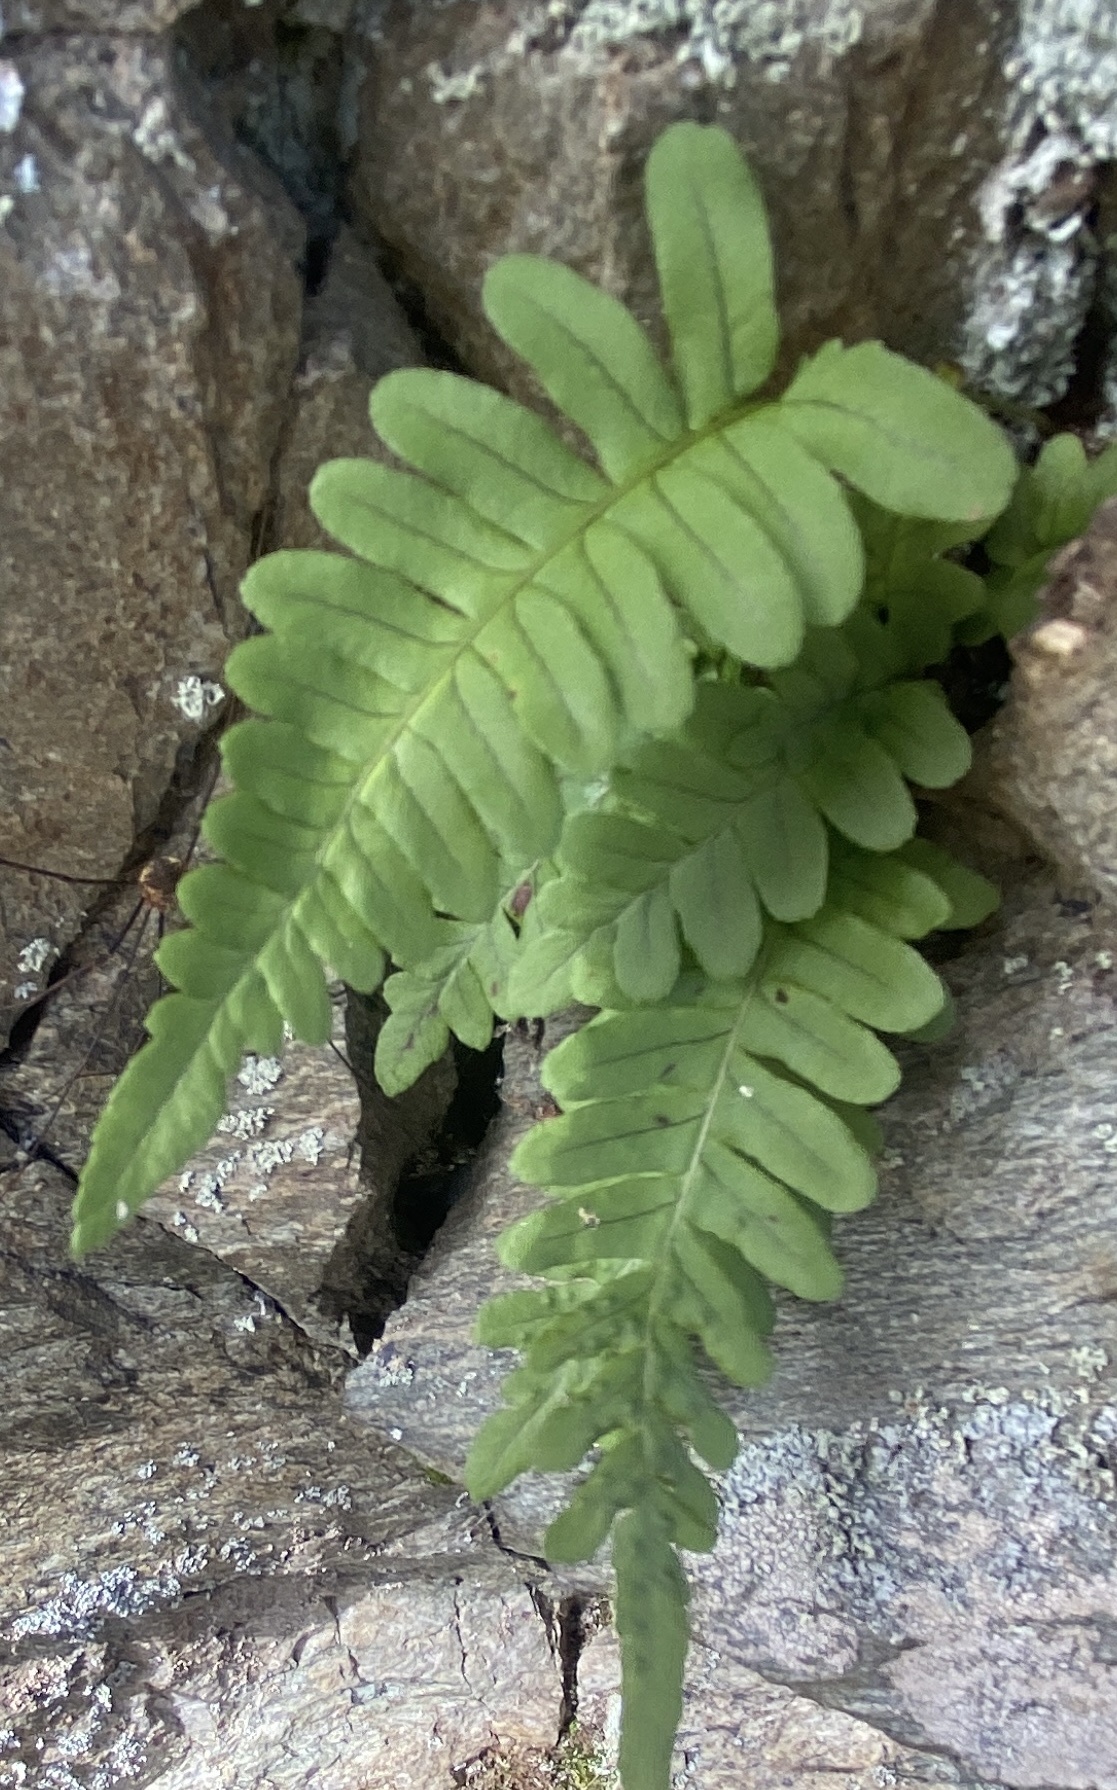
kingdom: Plantae
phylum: Tracheophyta
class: Polypodiopsida
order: Polypodiales
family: Polypodiaceae
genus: Polypodium
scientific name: Polypodium vulgare
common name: Common polypody
